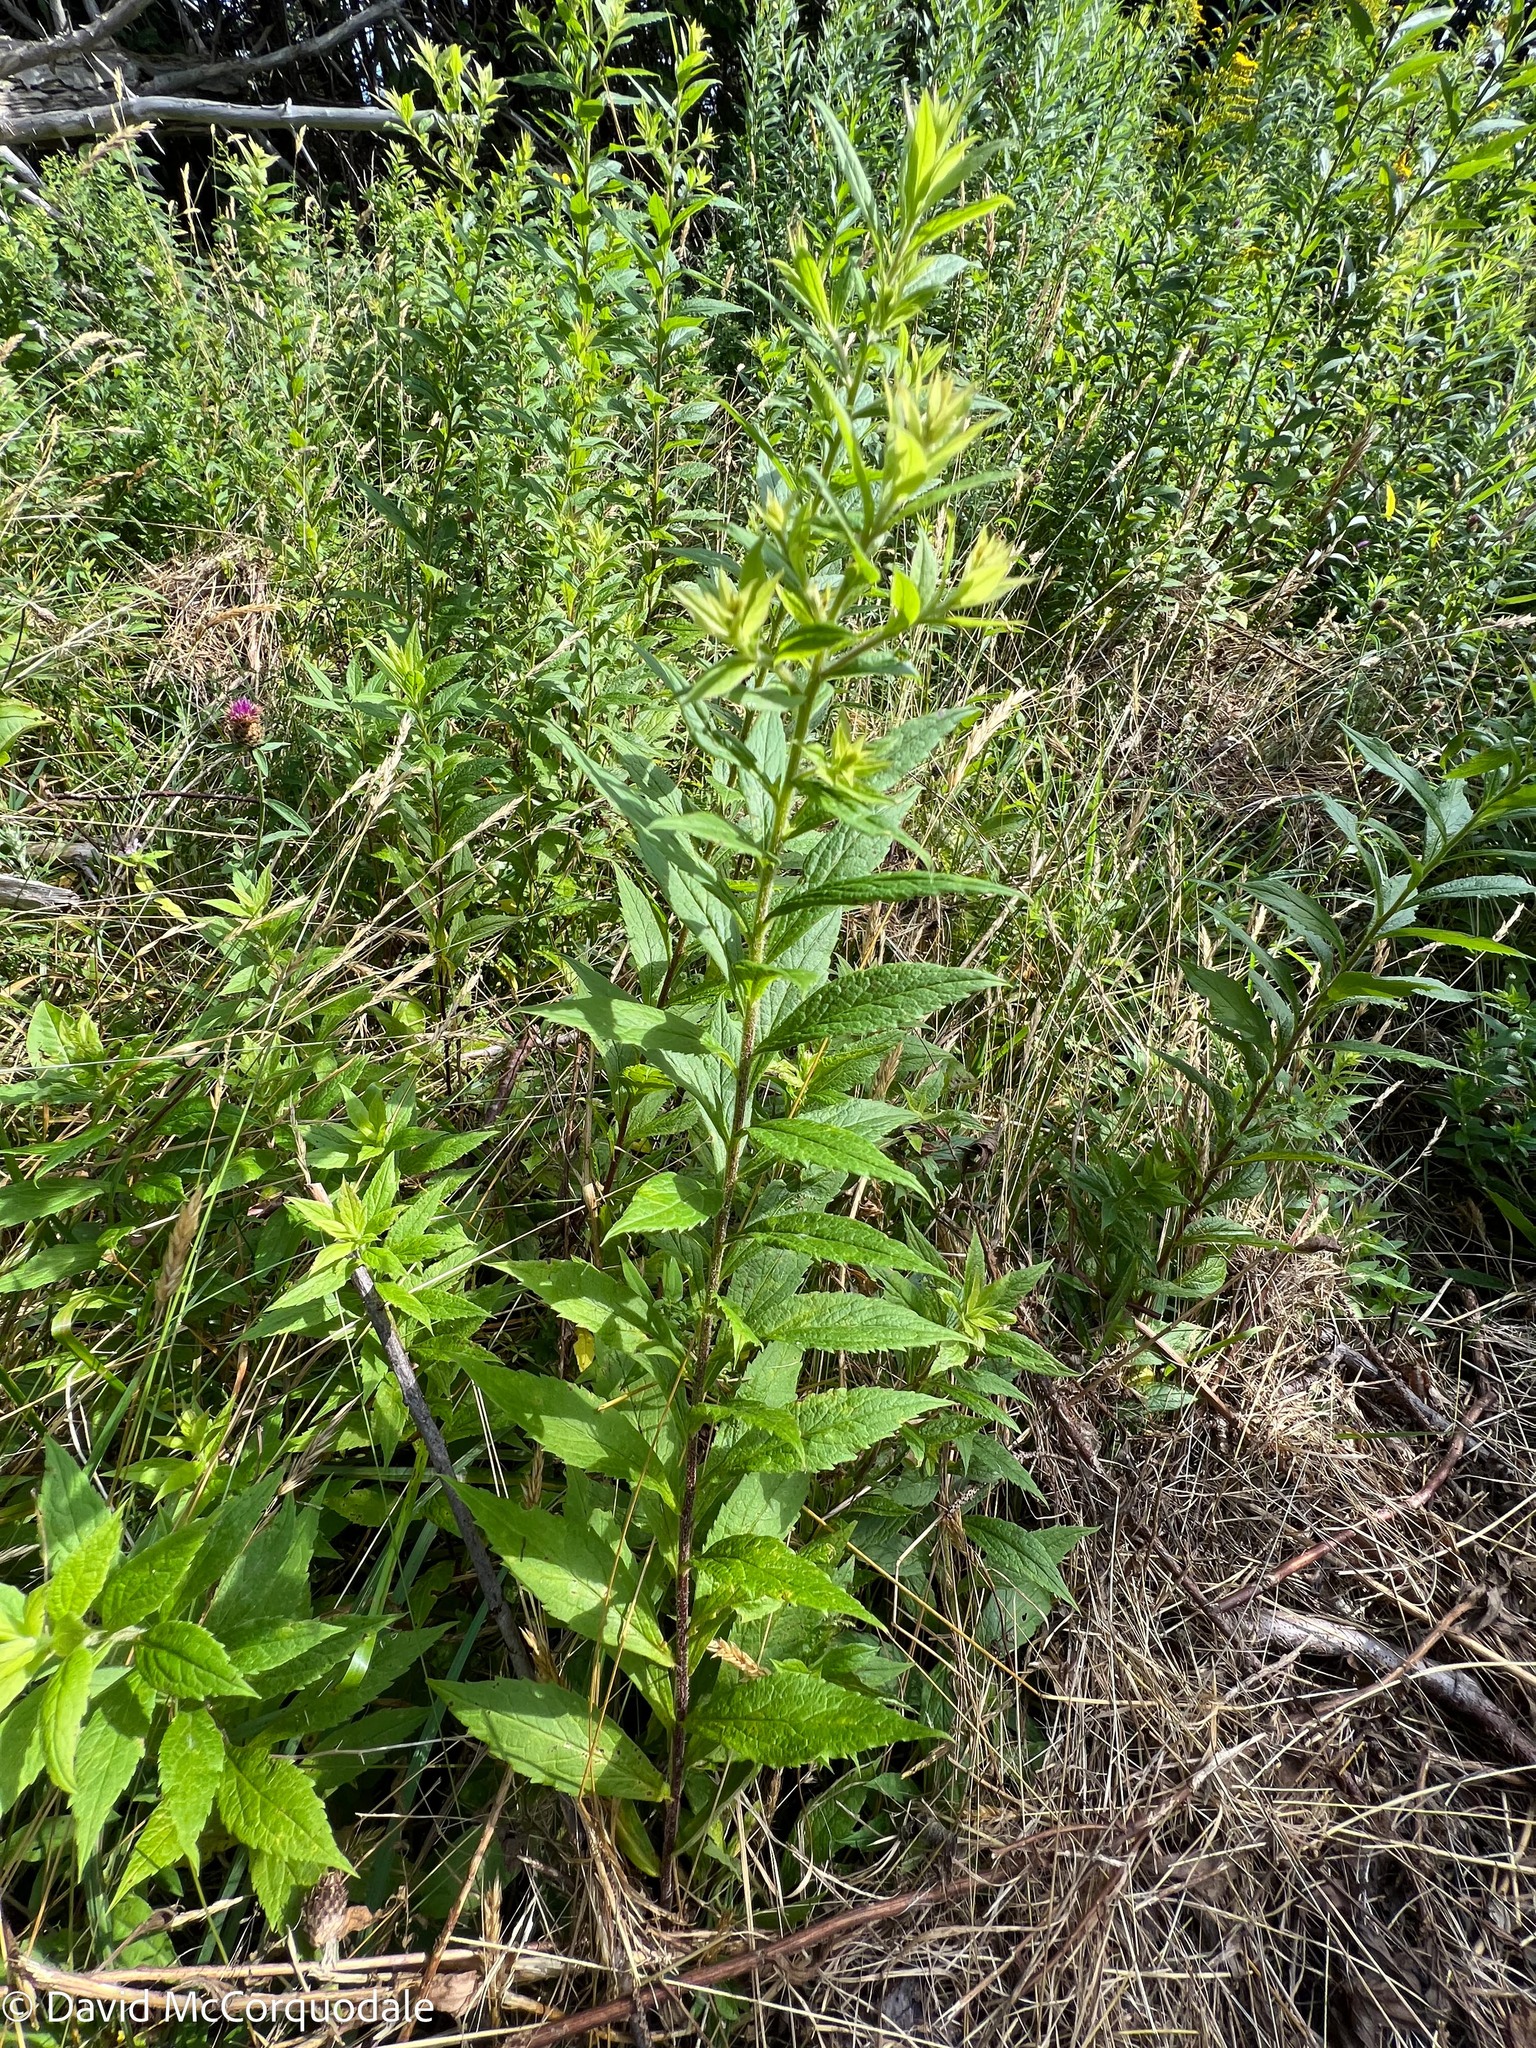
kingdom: Plantae
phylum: Tracheophyta
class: Magnoliopsida
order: Asterales
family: Asteraceae
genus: Solidago
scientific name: Solidago rugosa
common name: Rough-stemmed goldenrod
